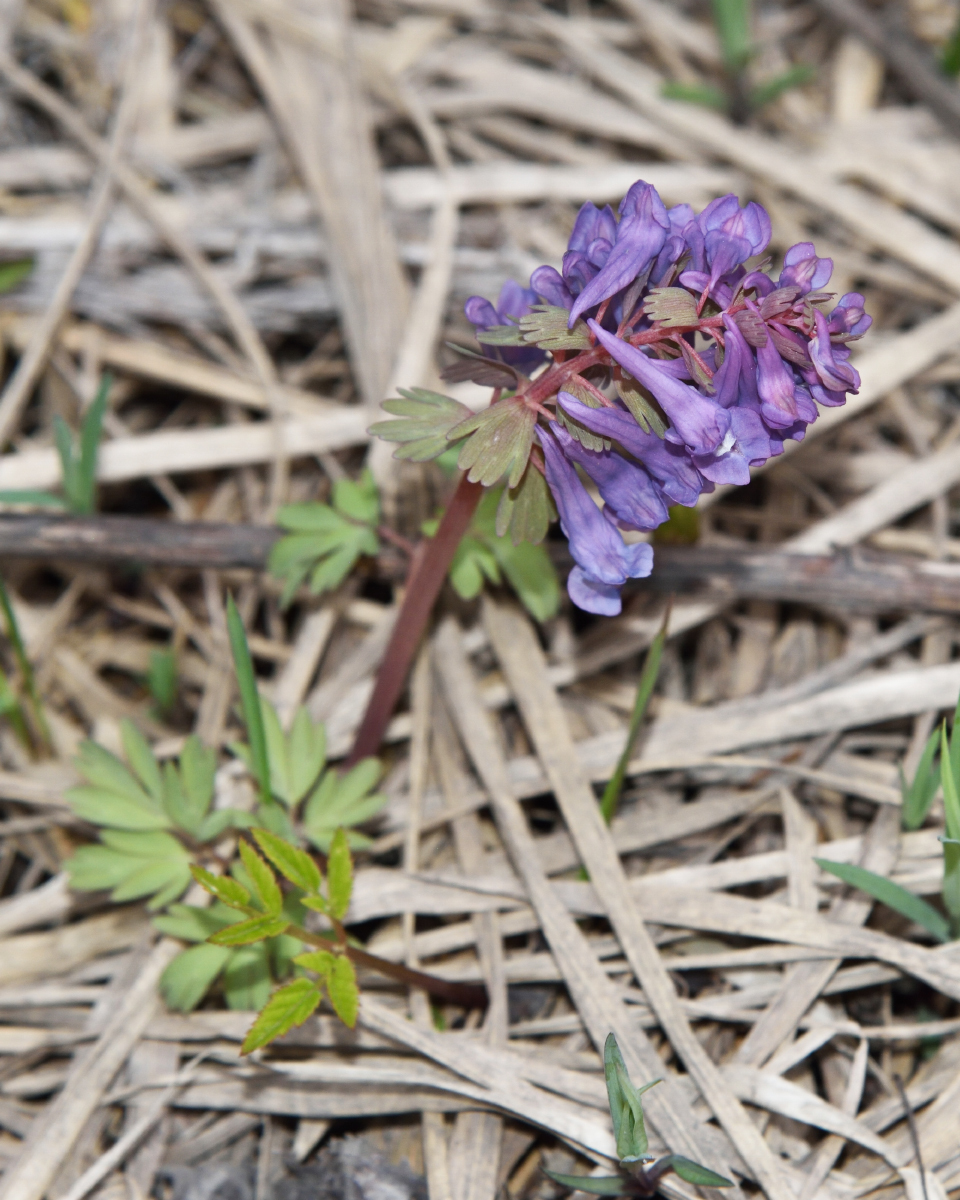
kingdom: Plantae
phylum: Tracheophyta
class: Magnoliopsida
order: Ranunculales
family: Papaveraceae
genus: Corydalis
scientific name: Corydalis solida
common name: Bird-in-a-bush
